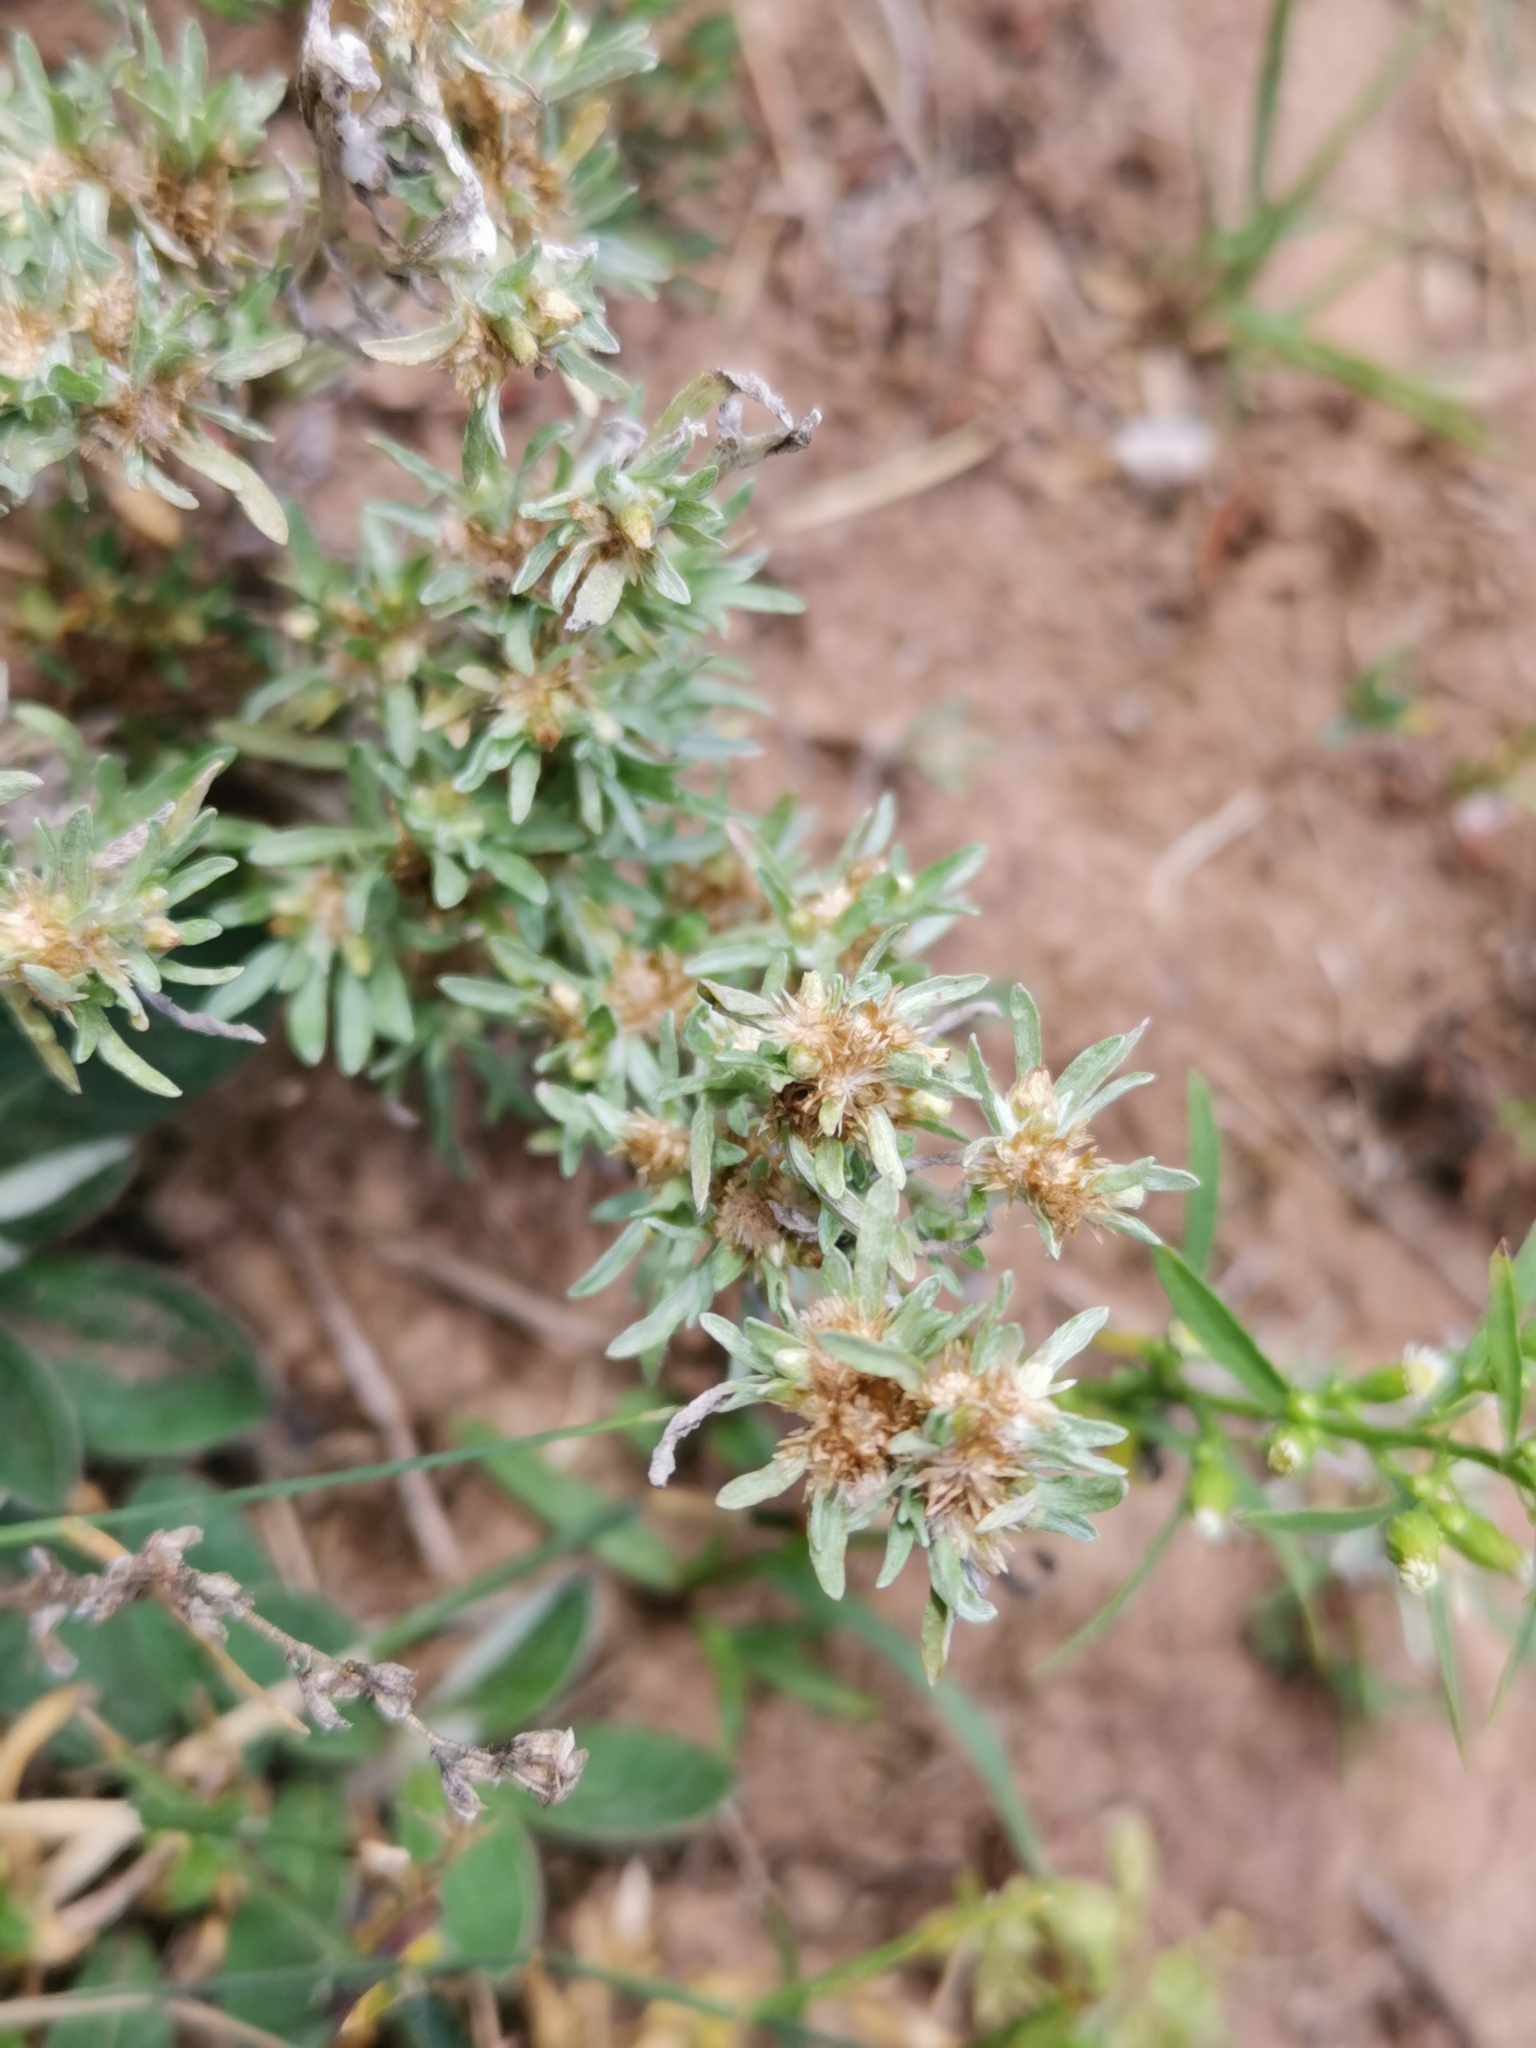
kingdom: Plantae
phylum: Tracheophyta
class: Magnoliopsida
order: Asterales
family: Asteraceae
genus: Gnaphalium
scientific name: Gnaphalium uliginosum
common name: Marsh cudweed
